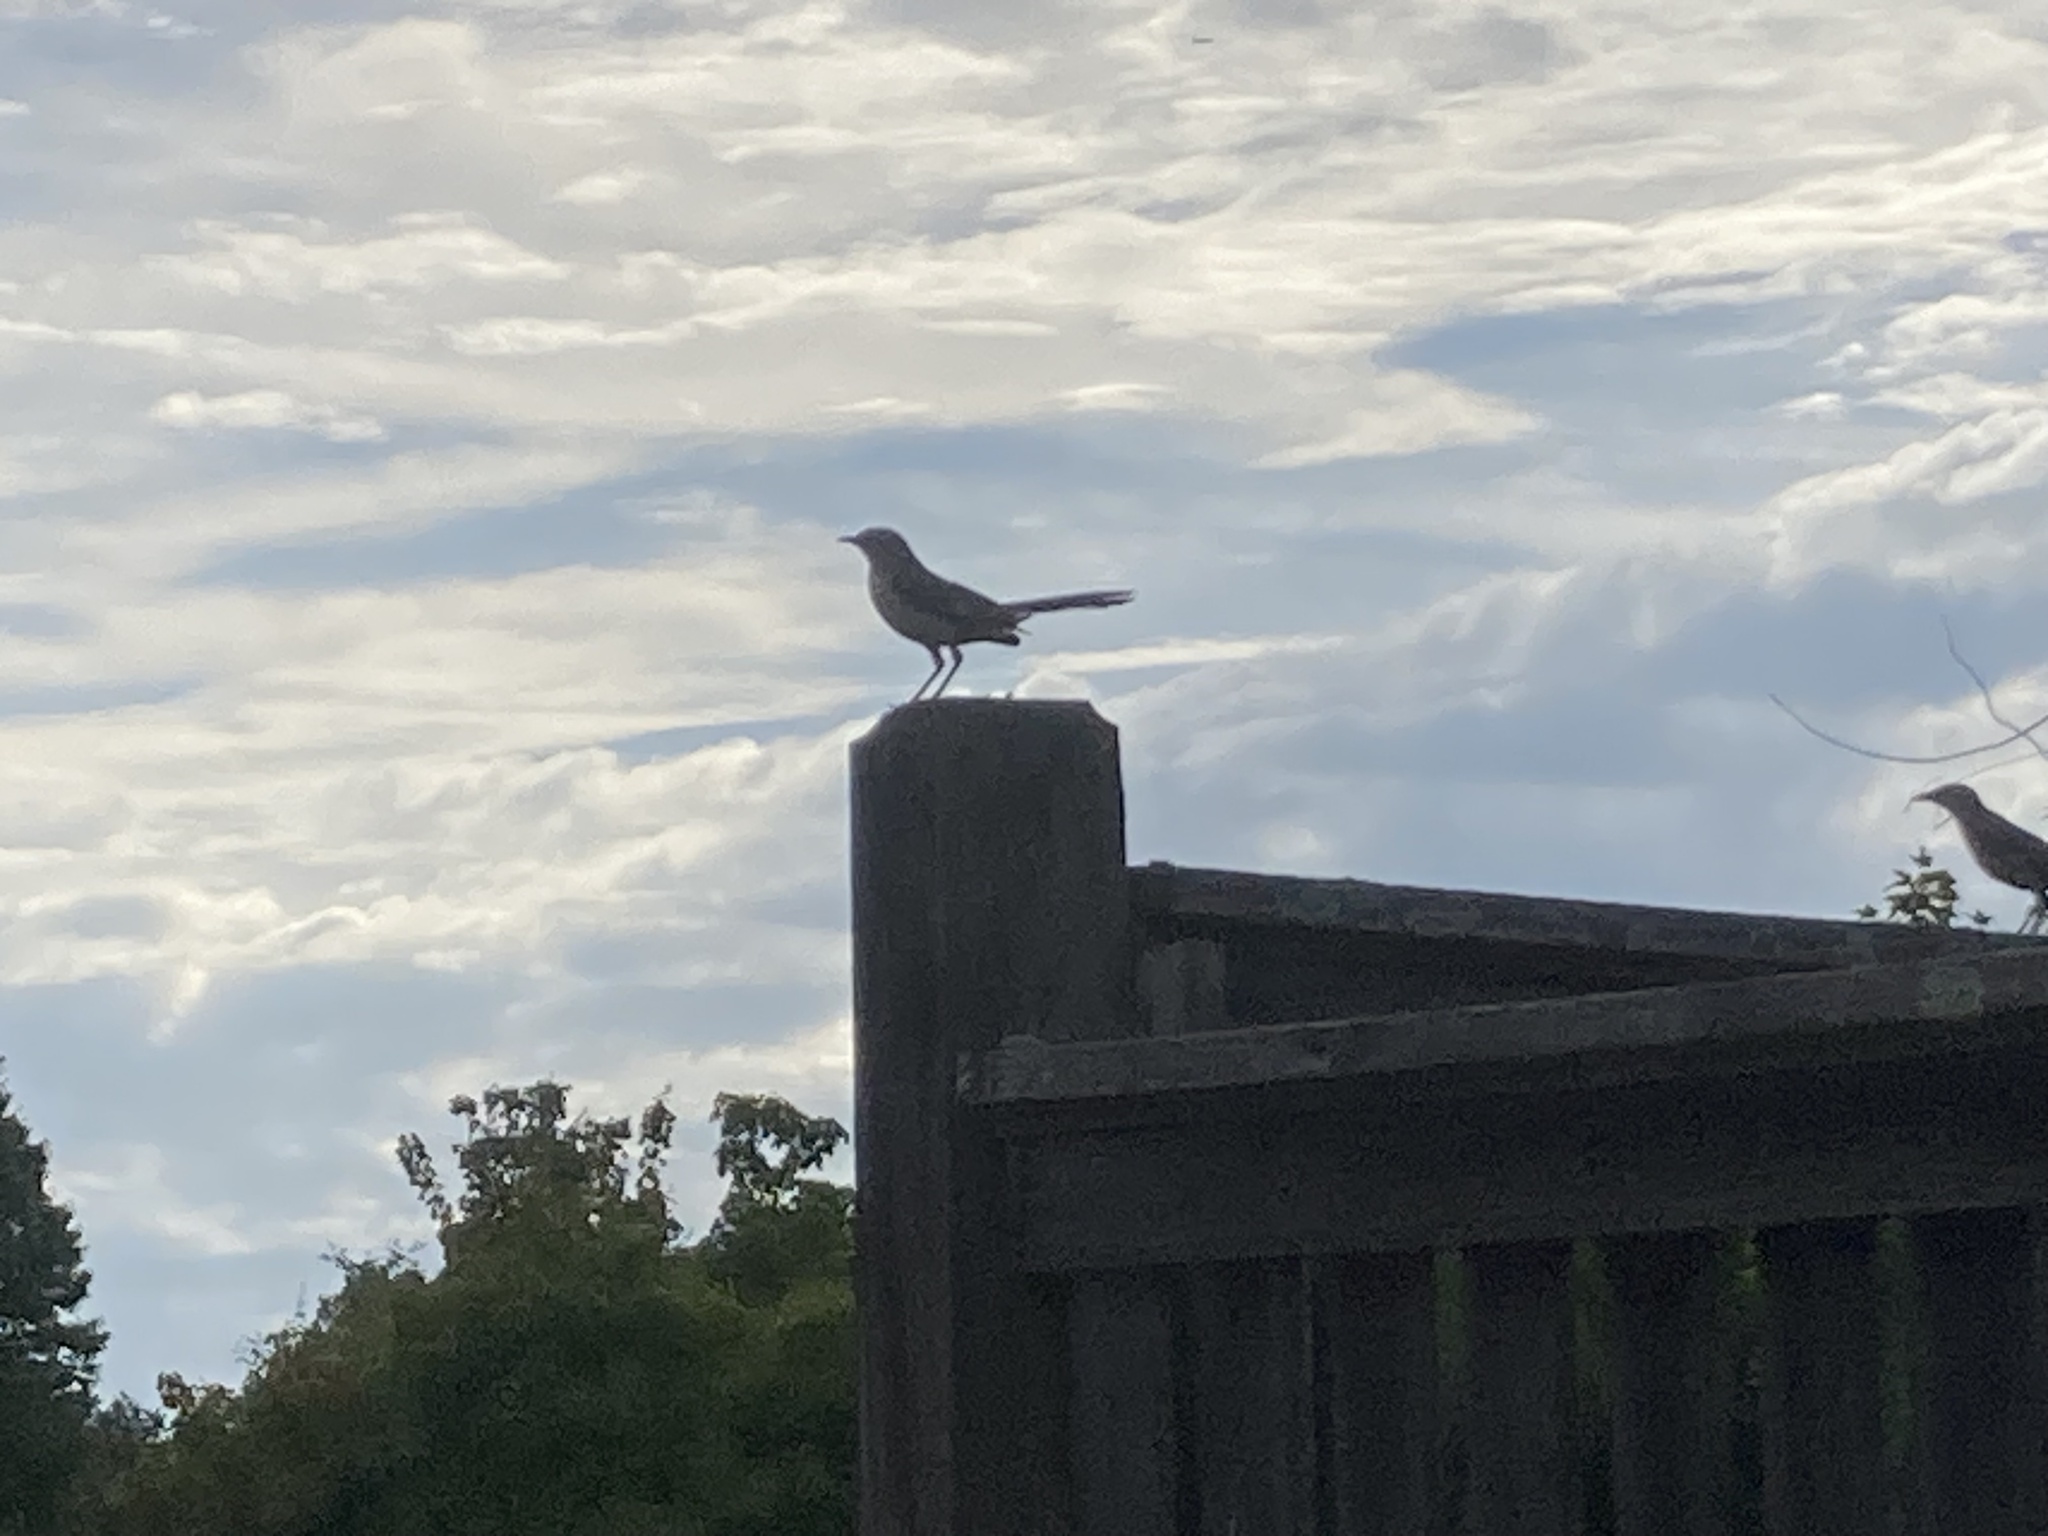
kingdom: Animalia
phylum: Chordata
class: Aves
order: Passeriformes
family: Mimidae
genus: Mimus
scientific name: Mimus polyglottos
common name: Northern mockingbird
